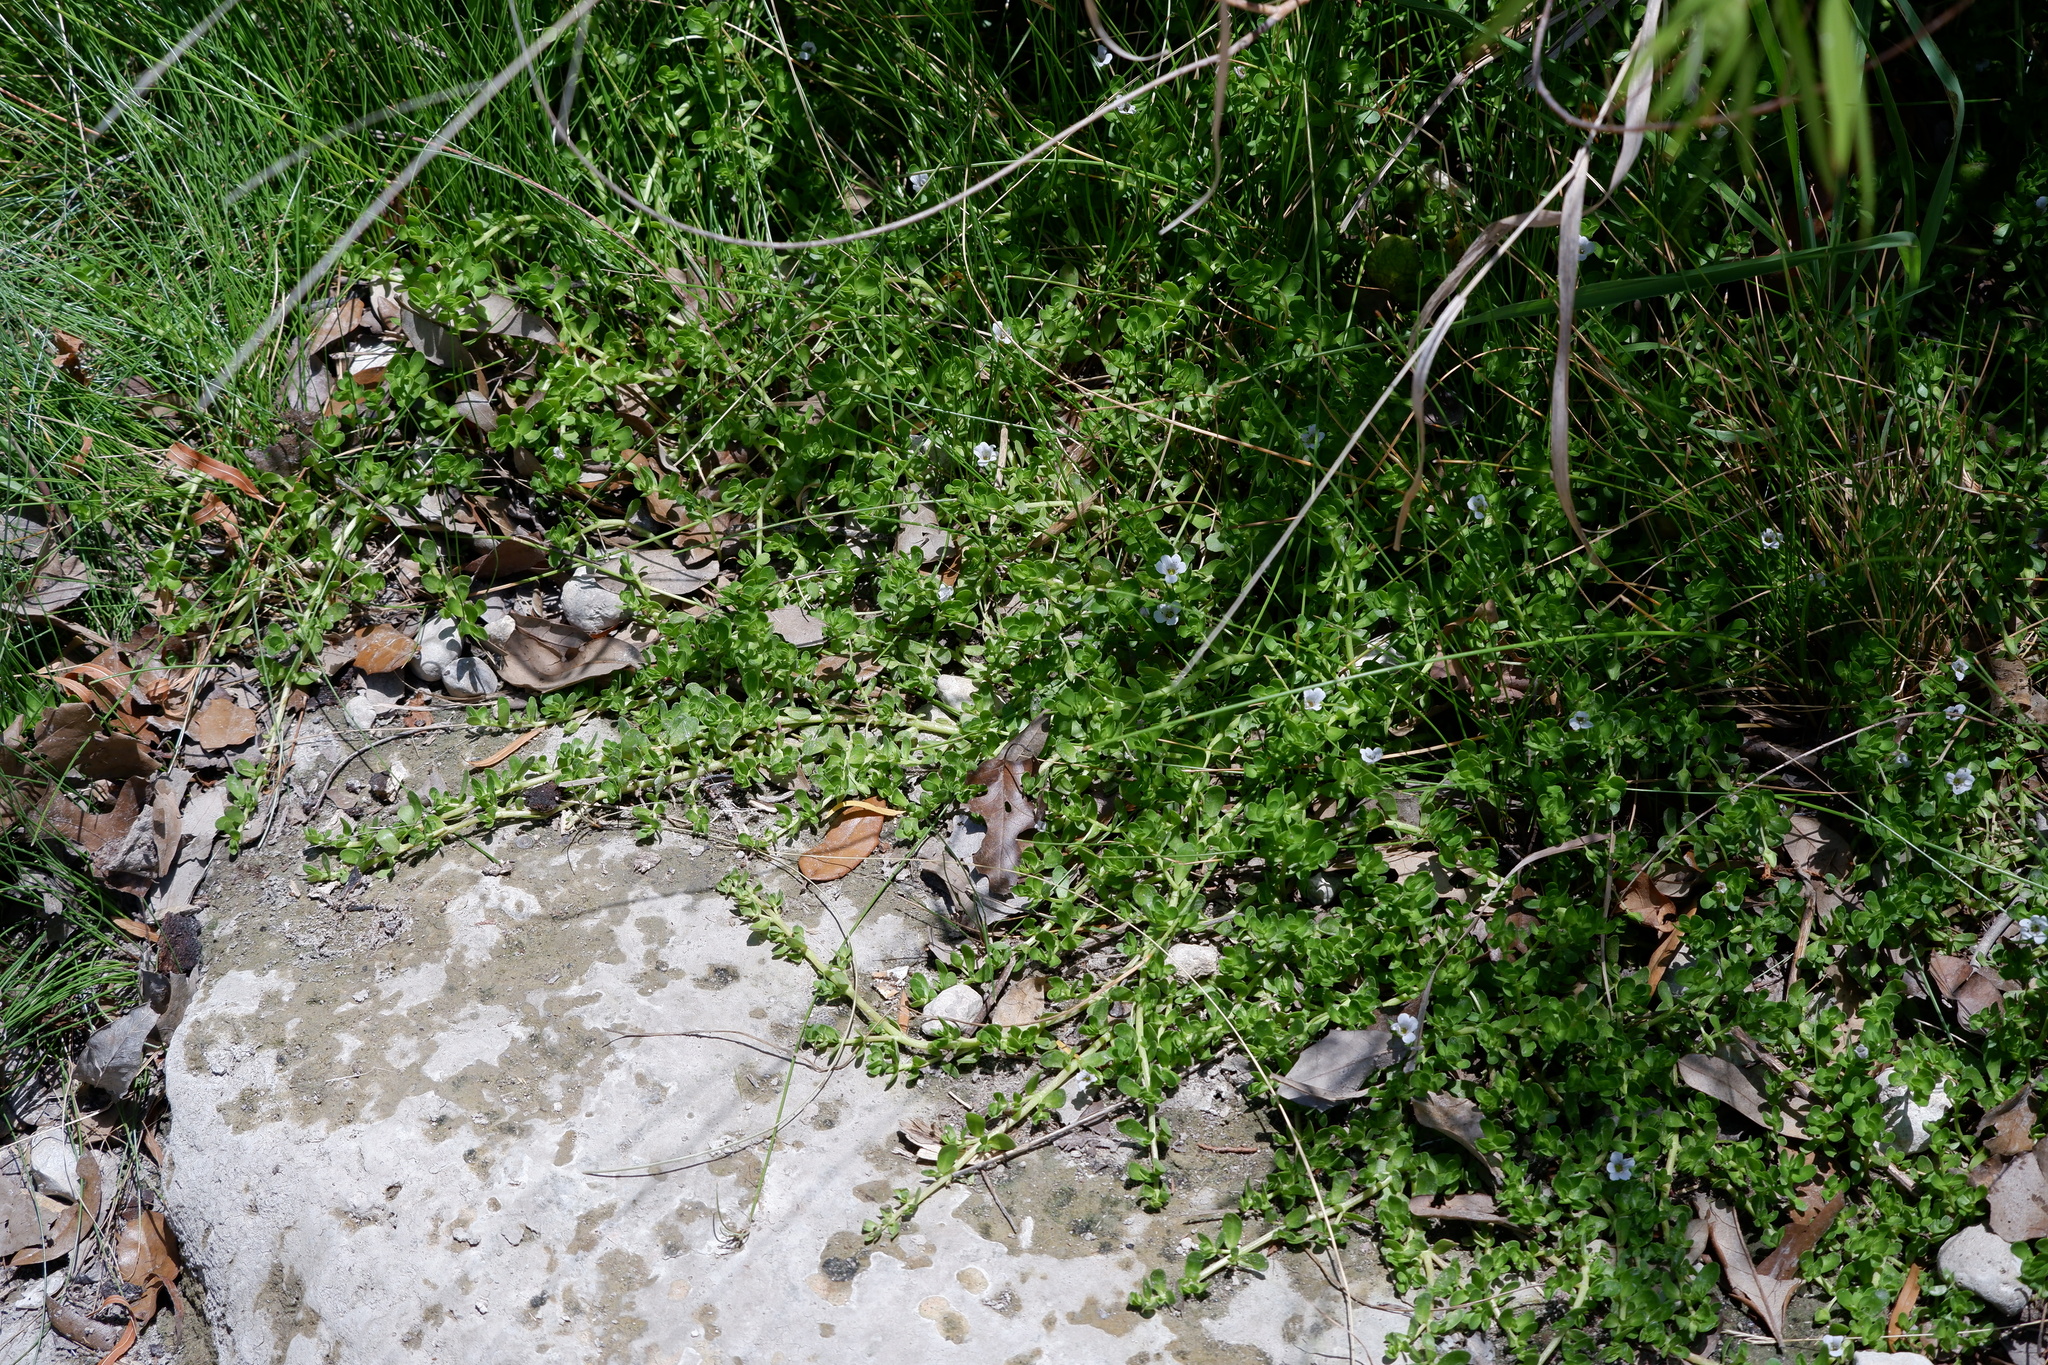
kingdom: Plantae
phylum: Tracheophyta
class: Magnoliopsida
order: Lamiales
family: Plantaginaceae
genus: Bacopa
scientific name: Bacopa monnieri
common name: Indian-pennywort
